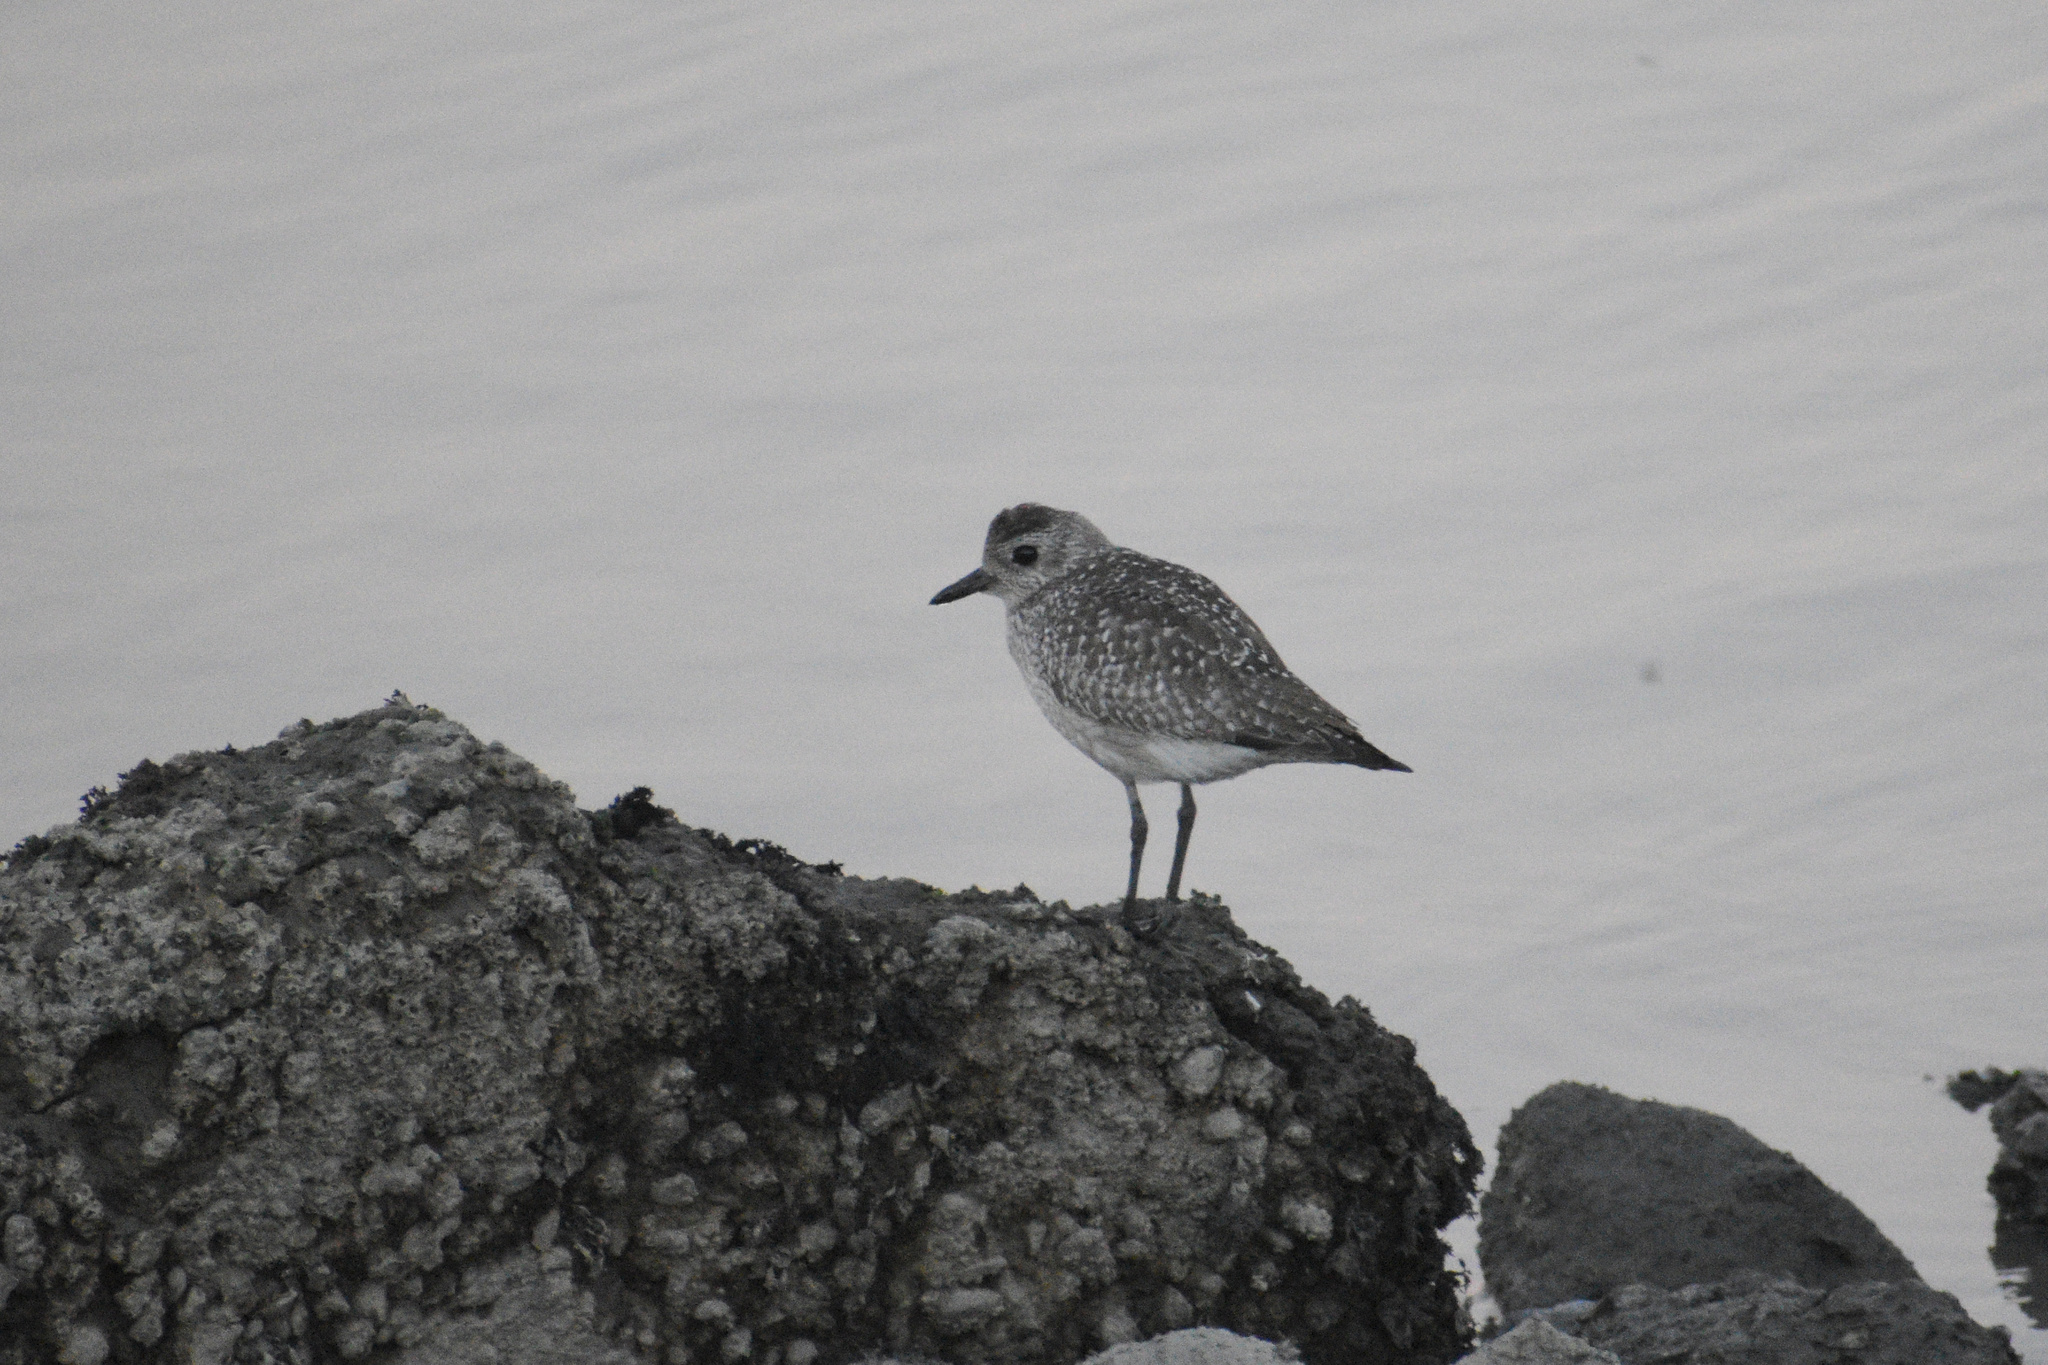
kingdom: Animalia
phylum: Chordata
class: Aves
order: Charadriiformes
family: Charadriidae
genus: Pluvialis
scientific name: Pluvialis squatarola
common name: Grey plover
